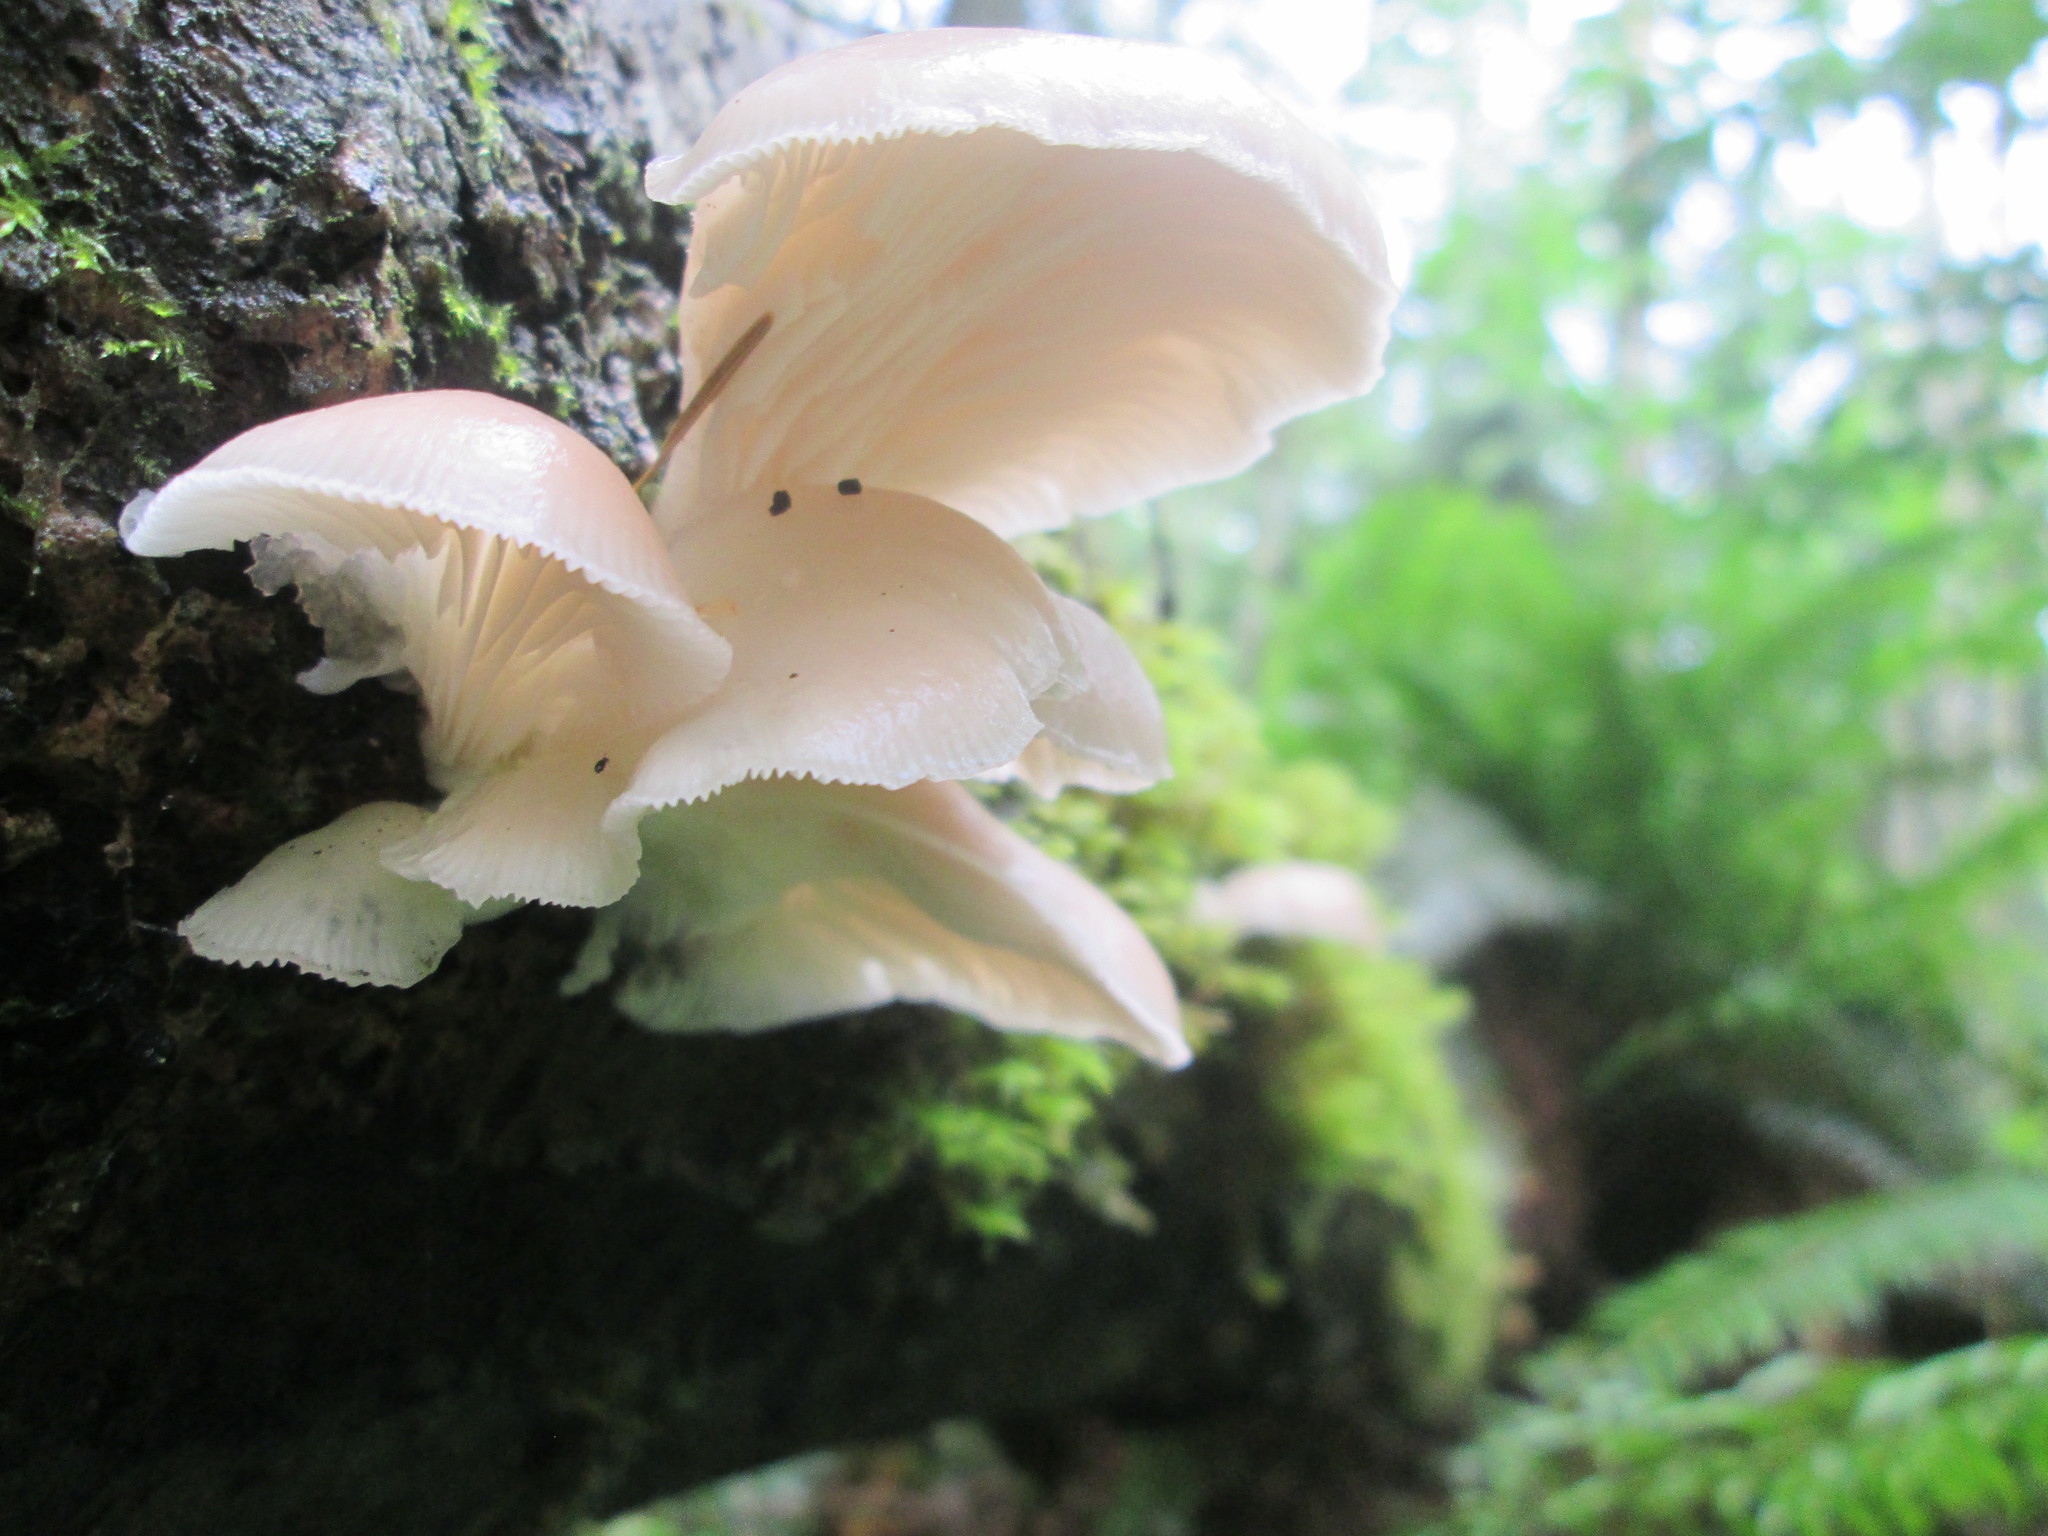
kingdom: Fungi
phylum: Basidiomycota
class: Agaricomycetes
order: Agaricales
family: Pleurotaceae
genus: Pleurotus
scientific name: Pleurotus ostreatus
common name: Oyster mushroom
